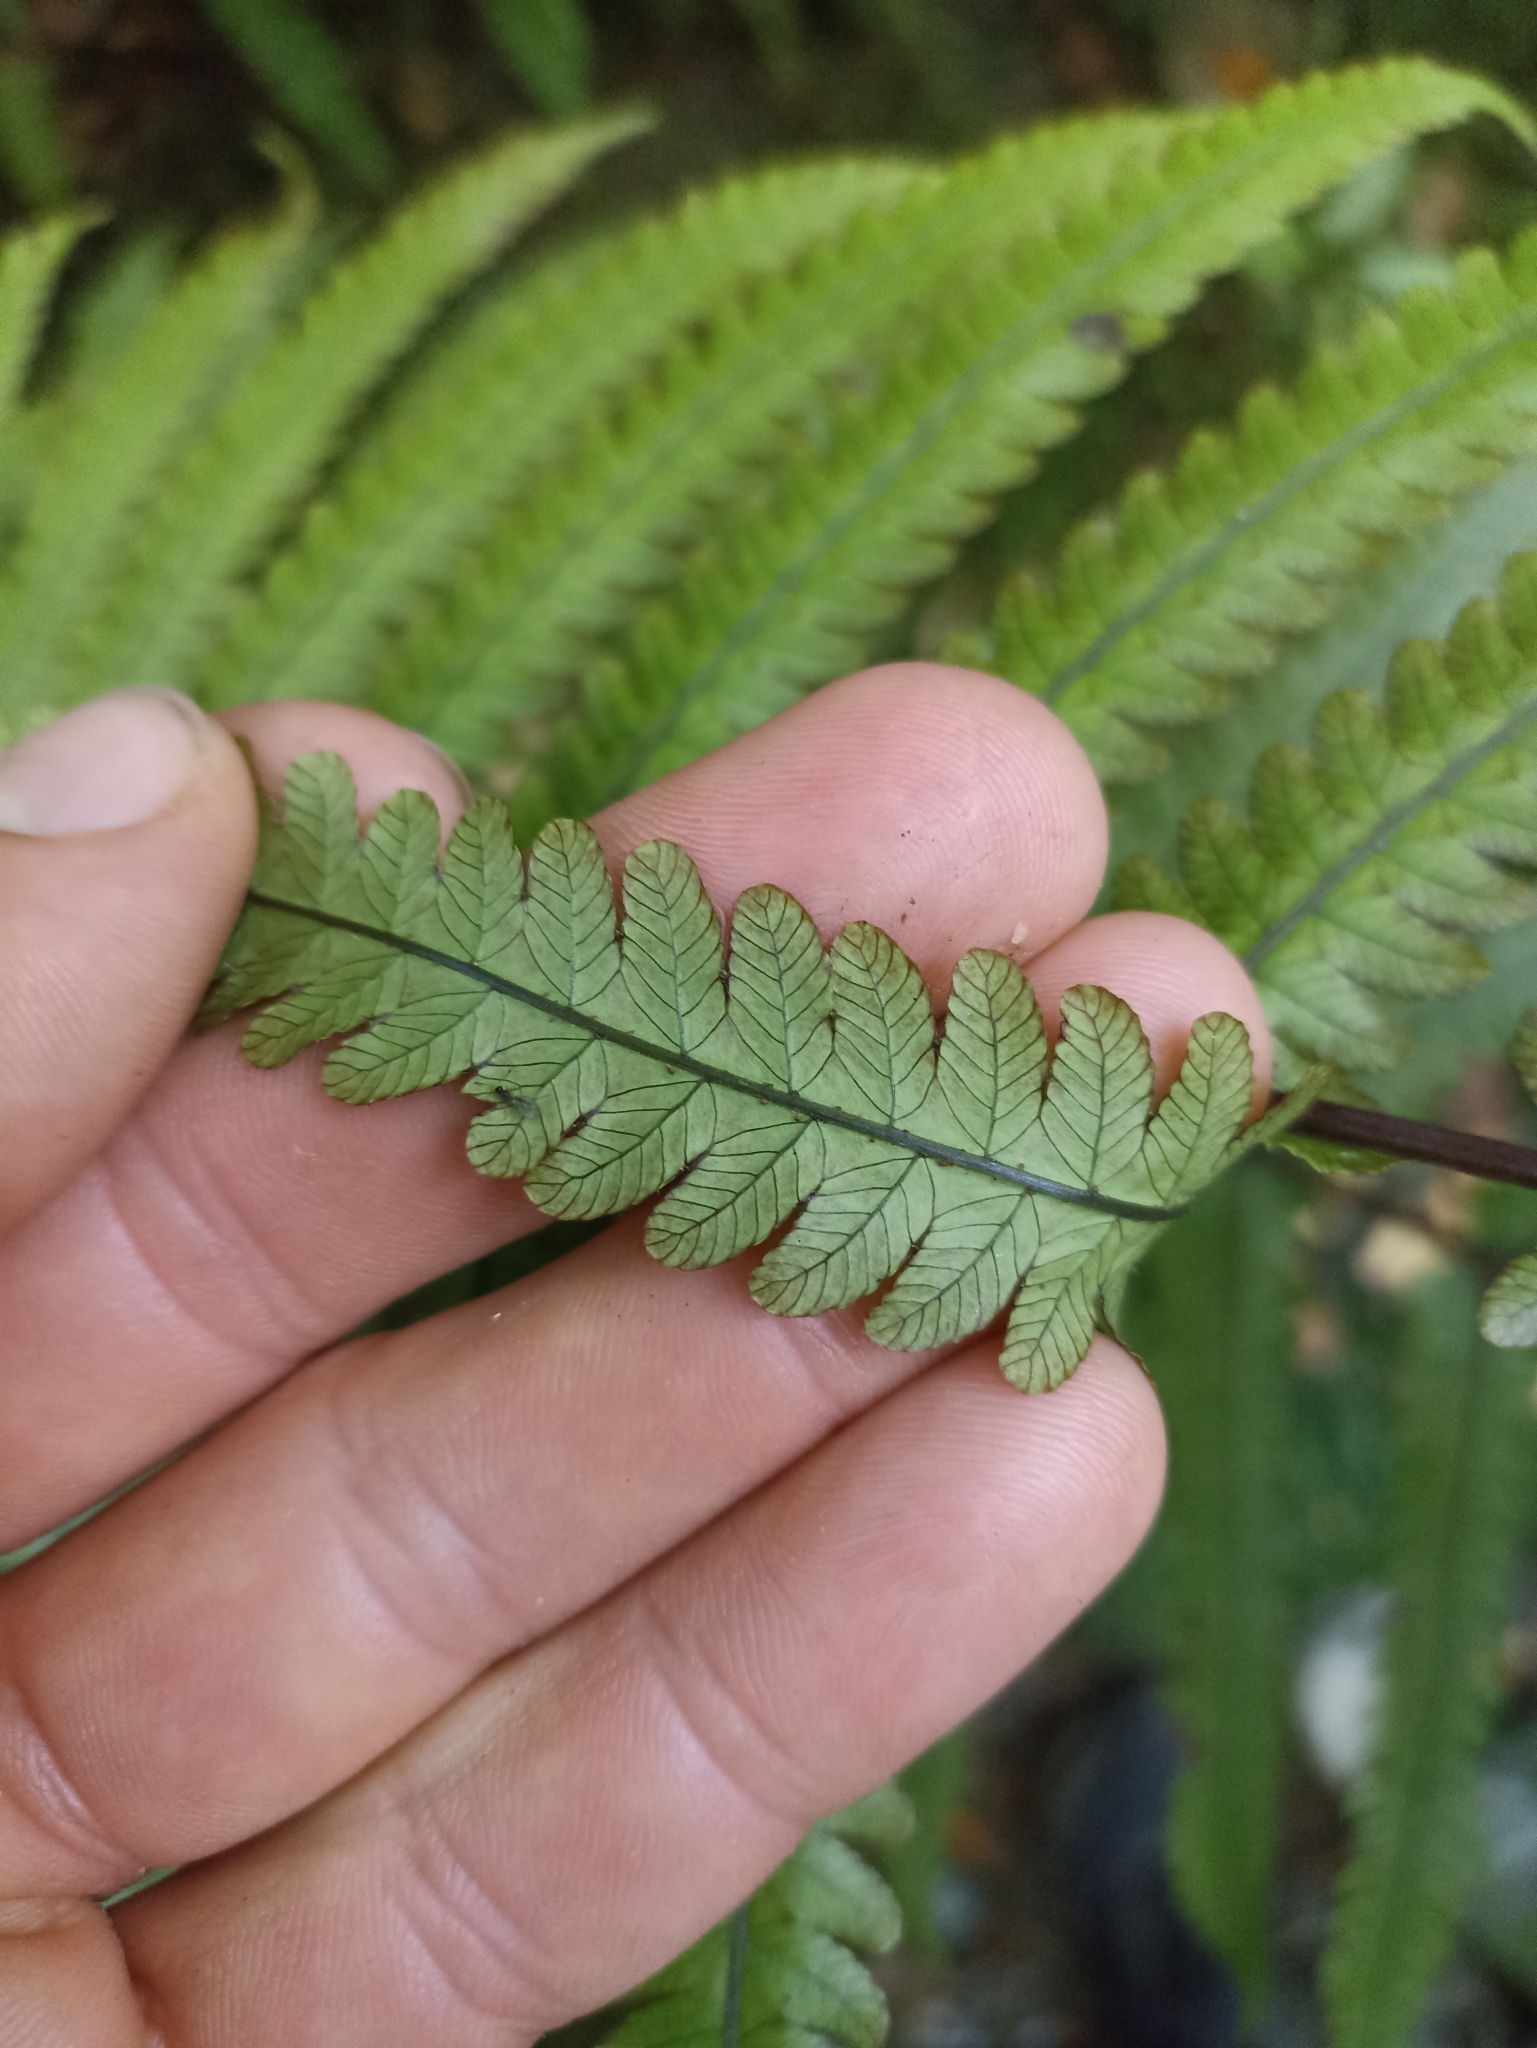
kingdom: Plantae
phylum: Tracheophyta
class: Polypodiopsida
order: Polypodiales
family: Thelypteridaceae
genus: Pakau
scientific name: Pakau pennigera
